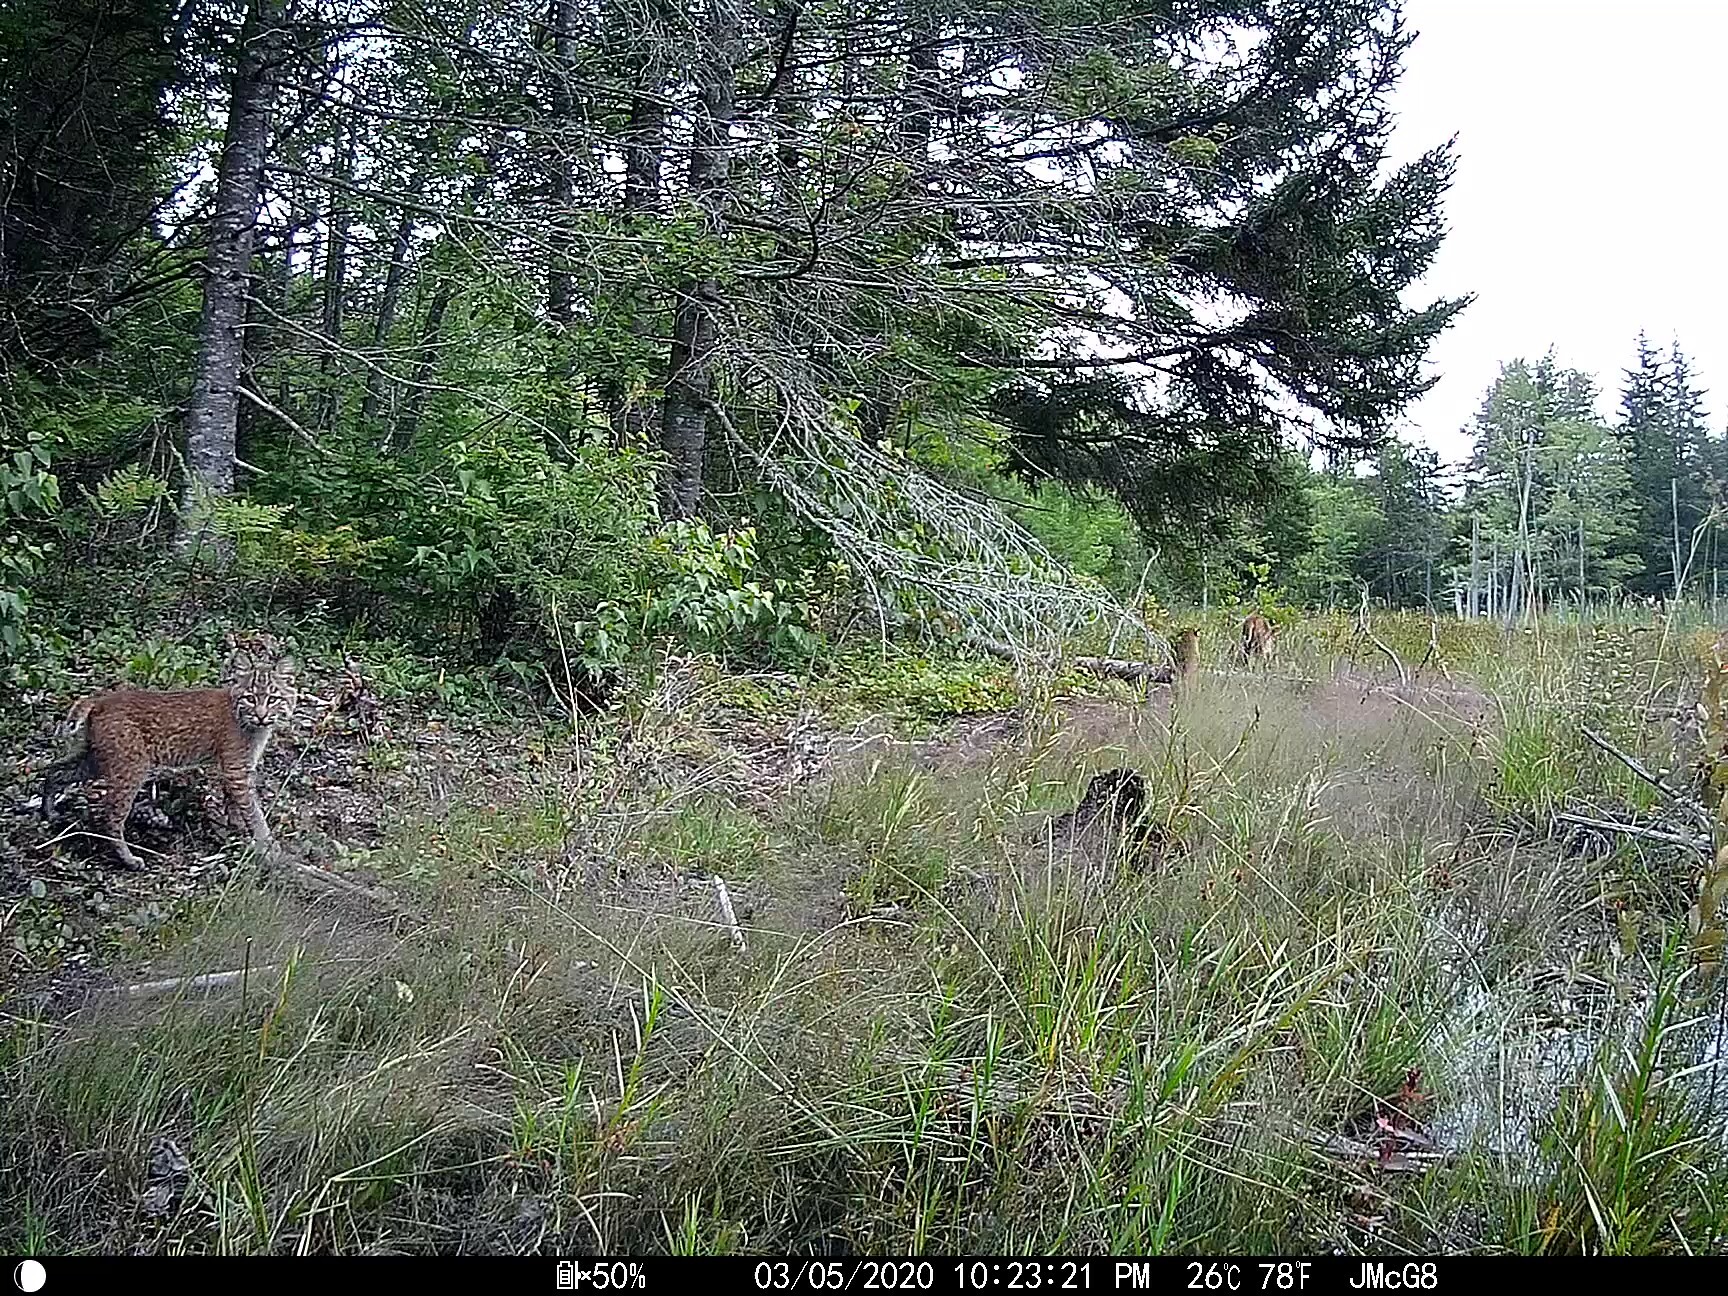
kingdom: Animalia
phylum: Chordata
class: Mammalia
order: Carnivora
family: Felidae
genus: Lynx
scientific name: Lynx rufus
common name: Bobcat
